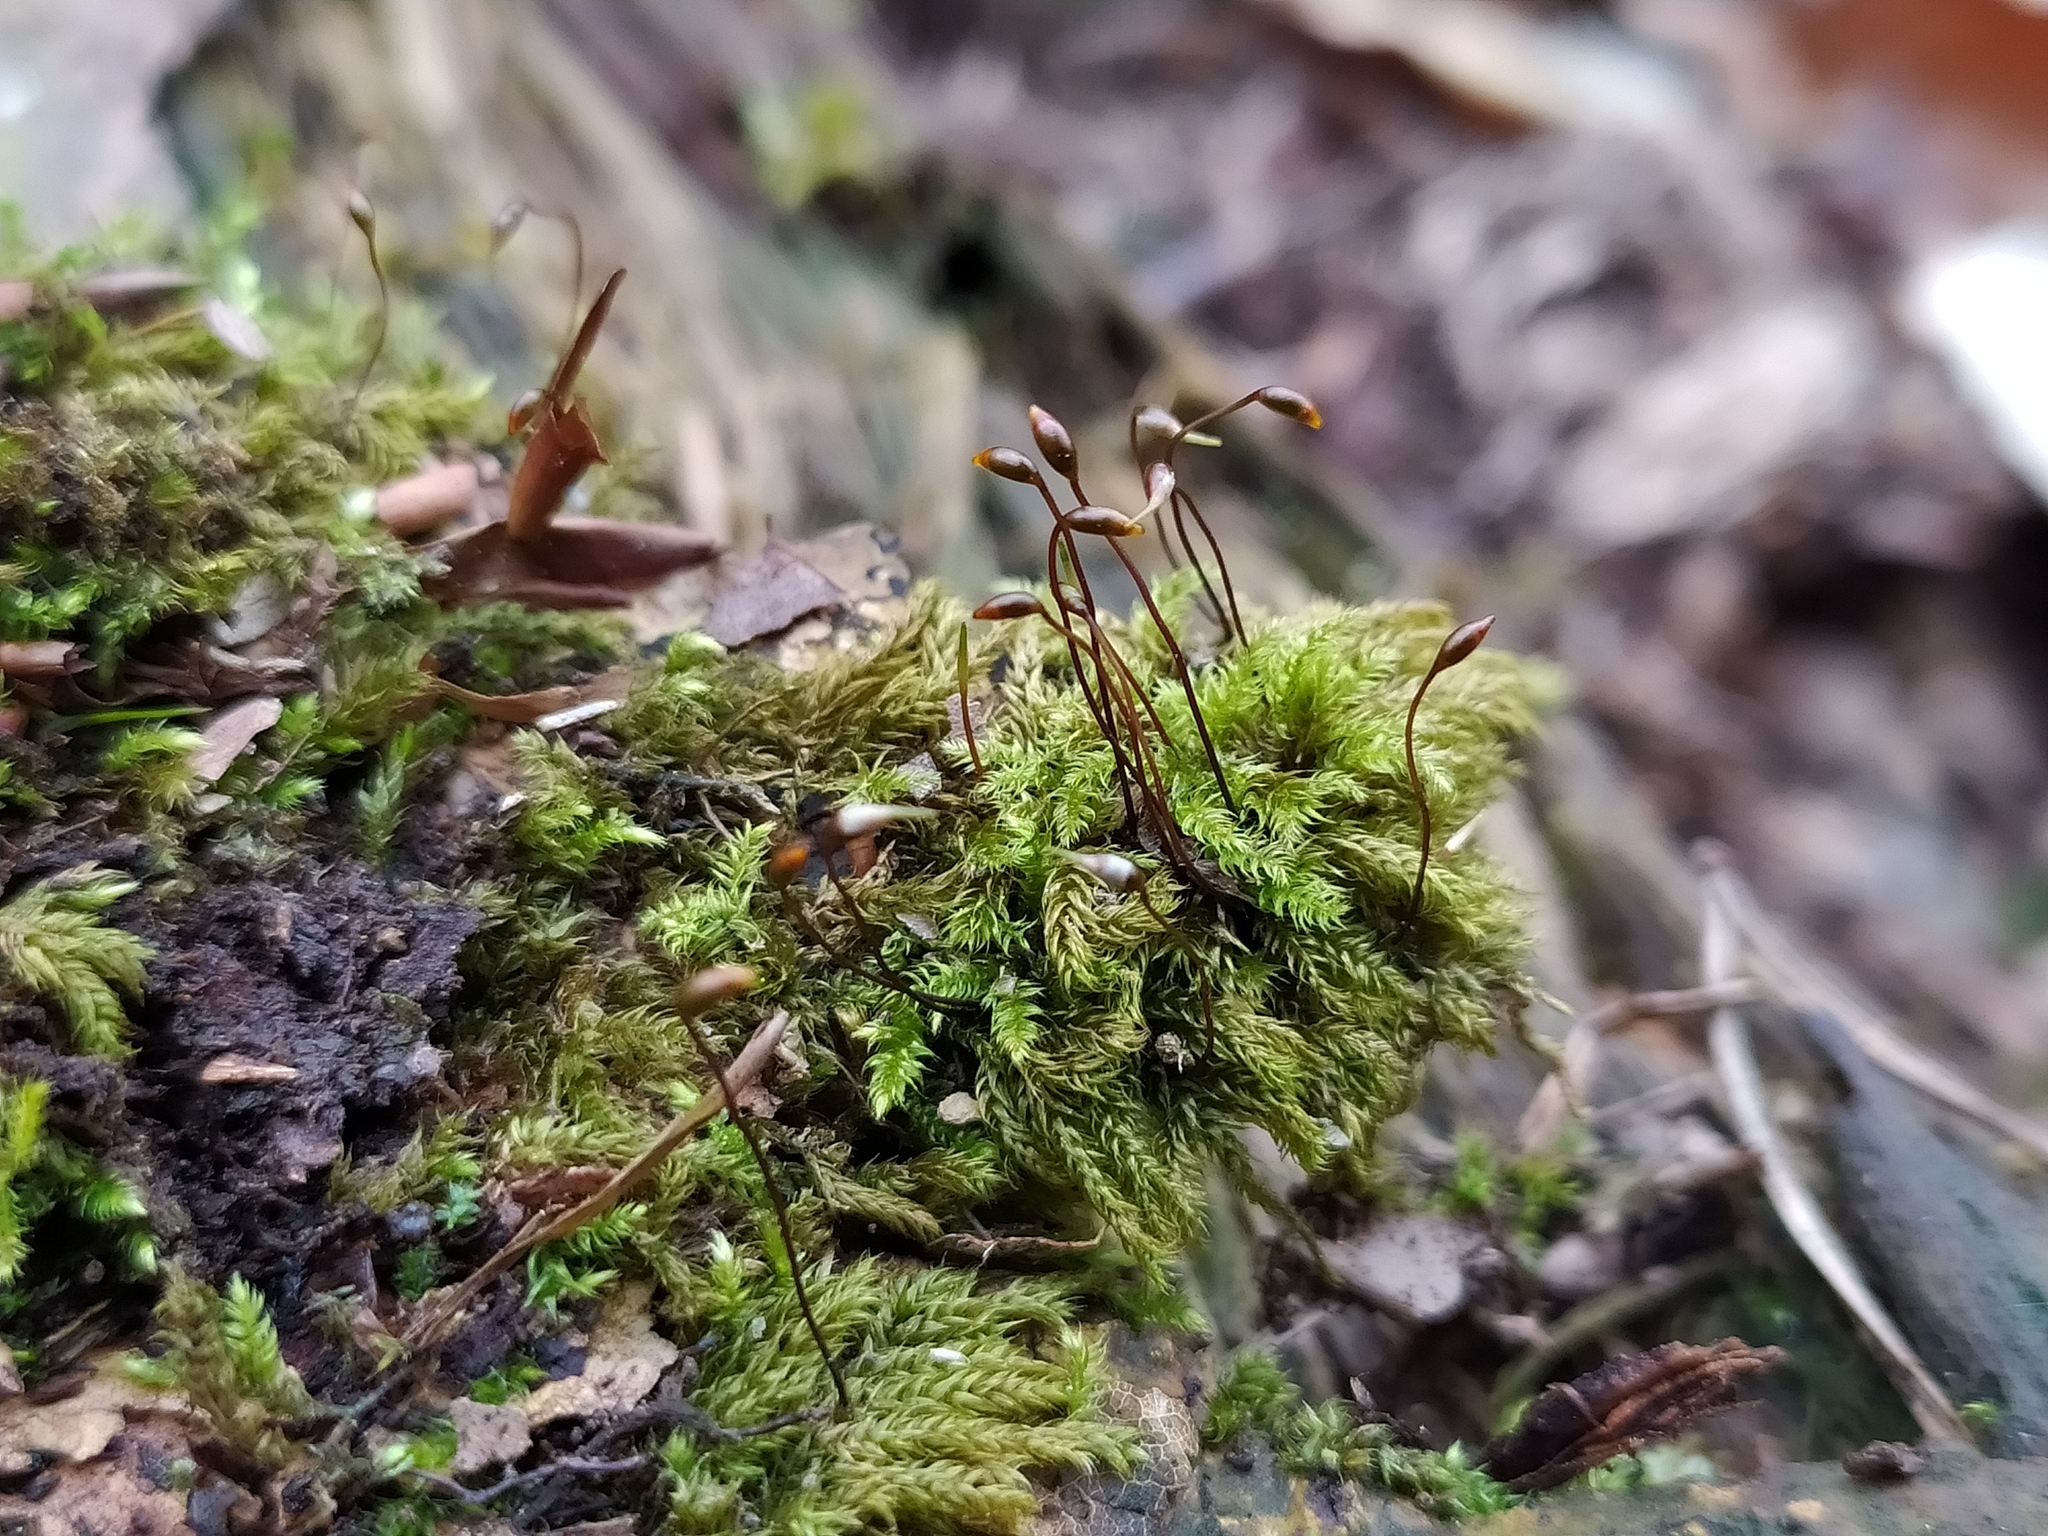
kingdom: Plantae
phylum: Bryophyta
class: Bryopsida
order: Hypnales
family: Brachytheciaceae
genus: Brachytheciastrum
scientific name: Brachytheciastrum velutinum
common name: Velvet feather-moss
